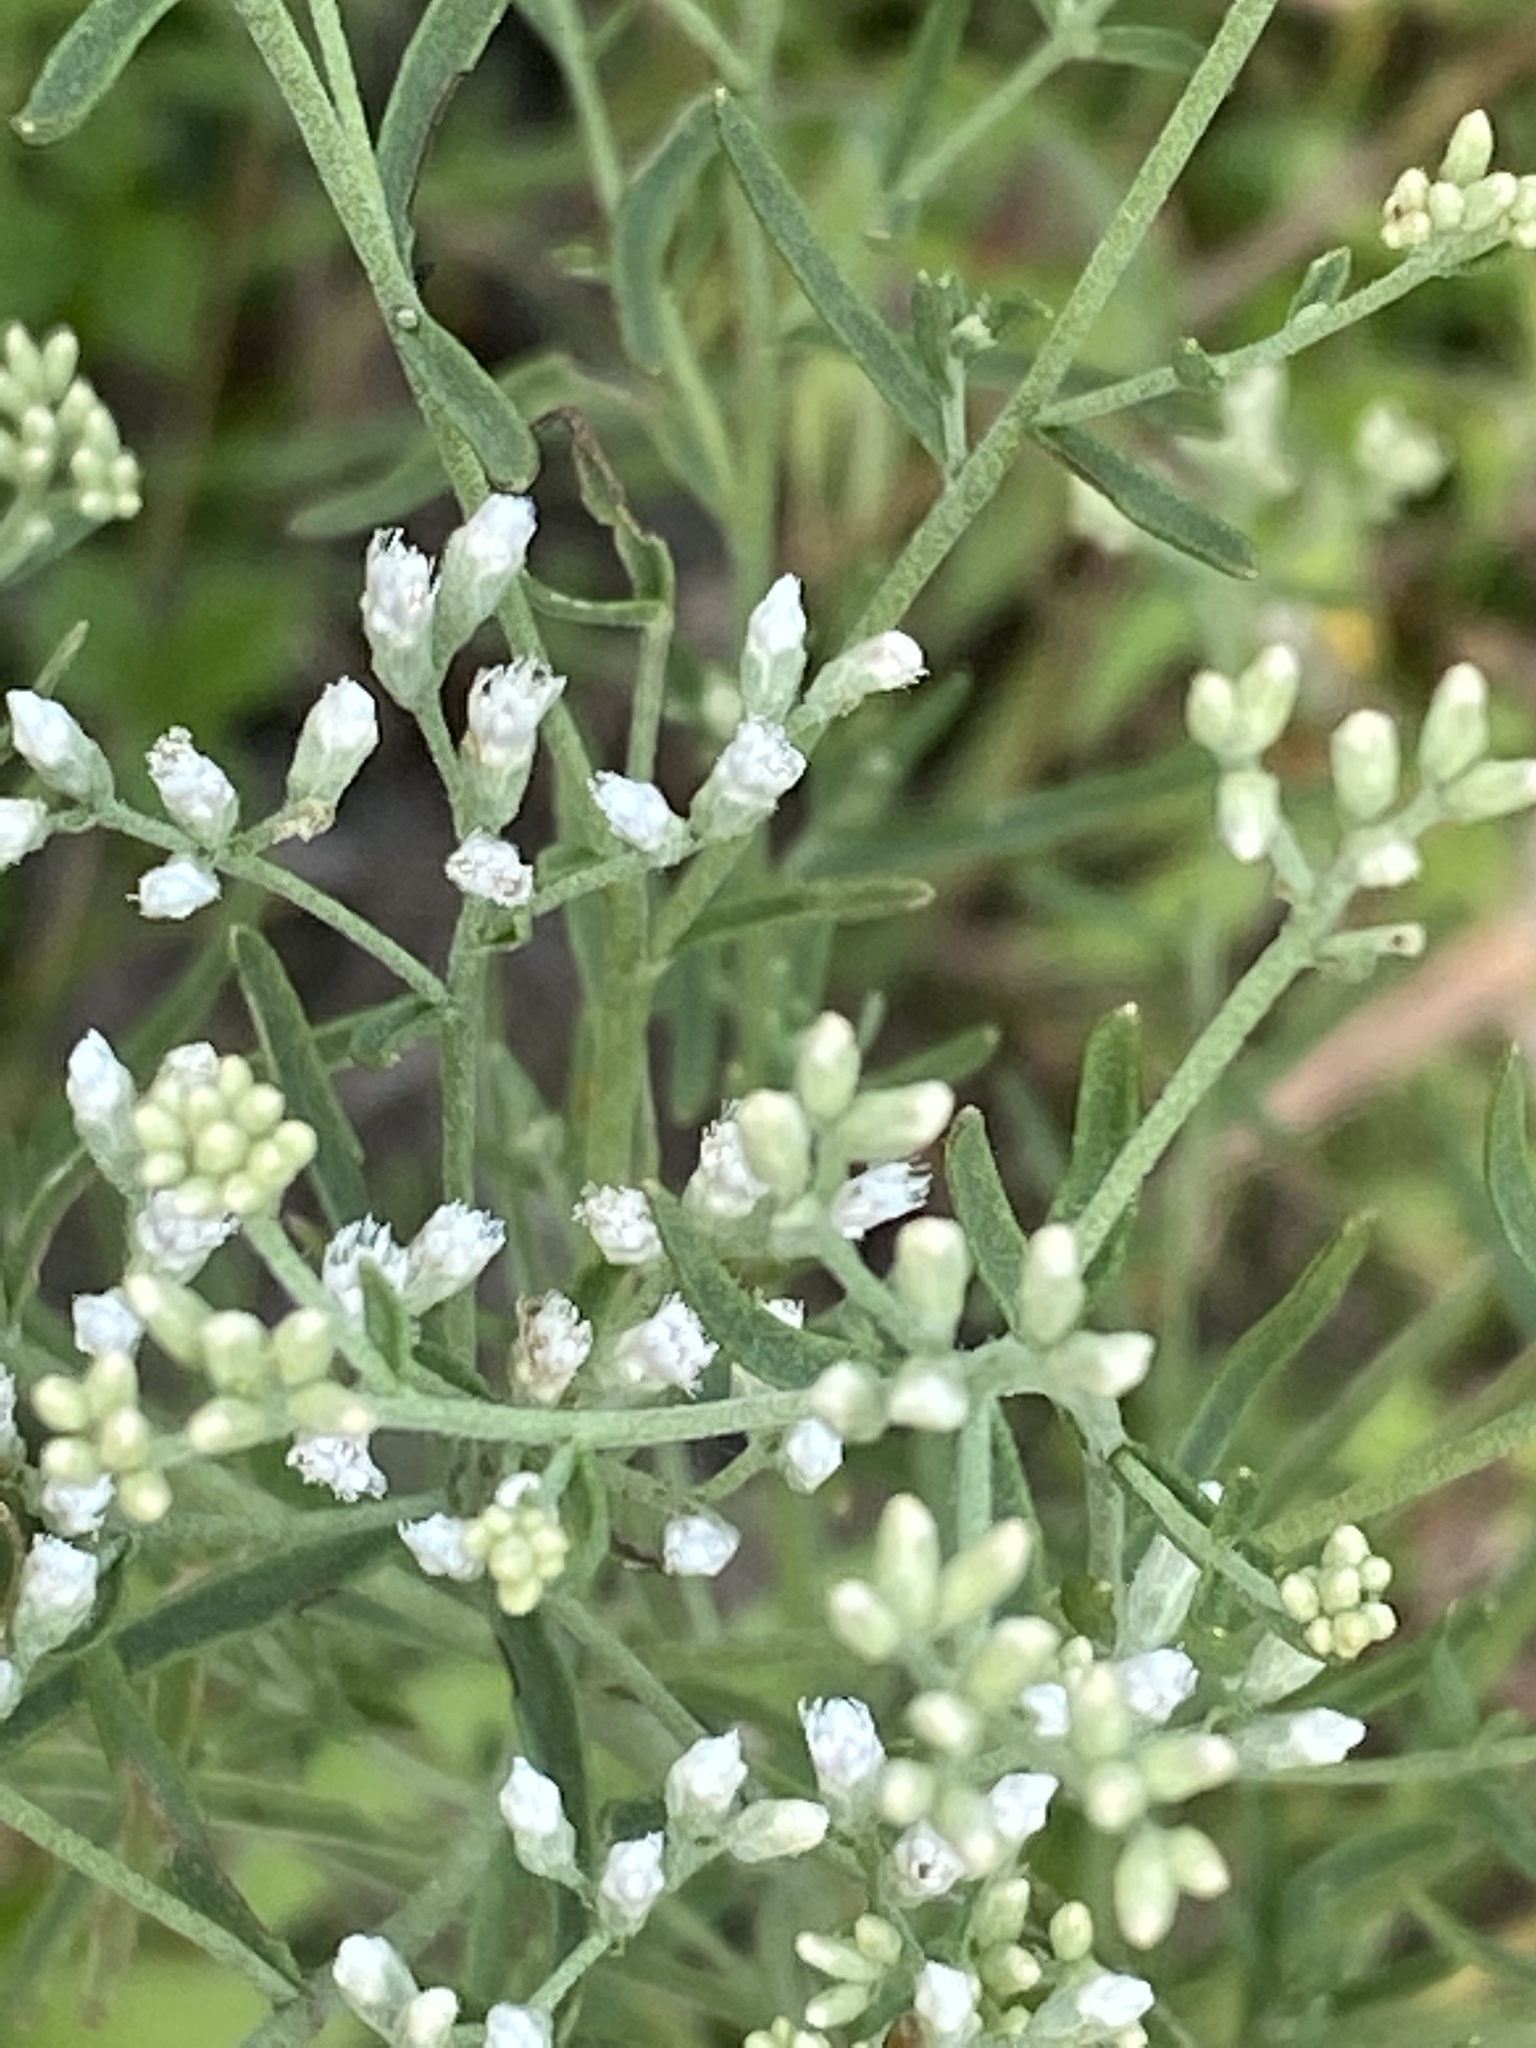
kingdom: Plantae
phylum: Tracheophyta
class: Magnoliopsida
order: Asterales
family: Asteraceae
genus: Eupatorium
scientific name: Eupatorium hyssopifolium
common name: Hyssop-leaf thoroughwort
